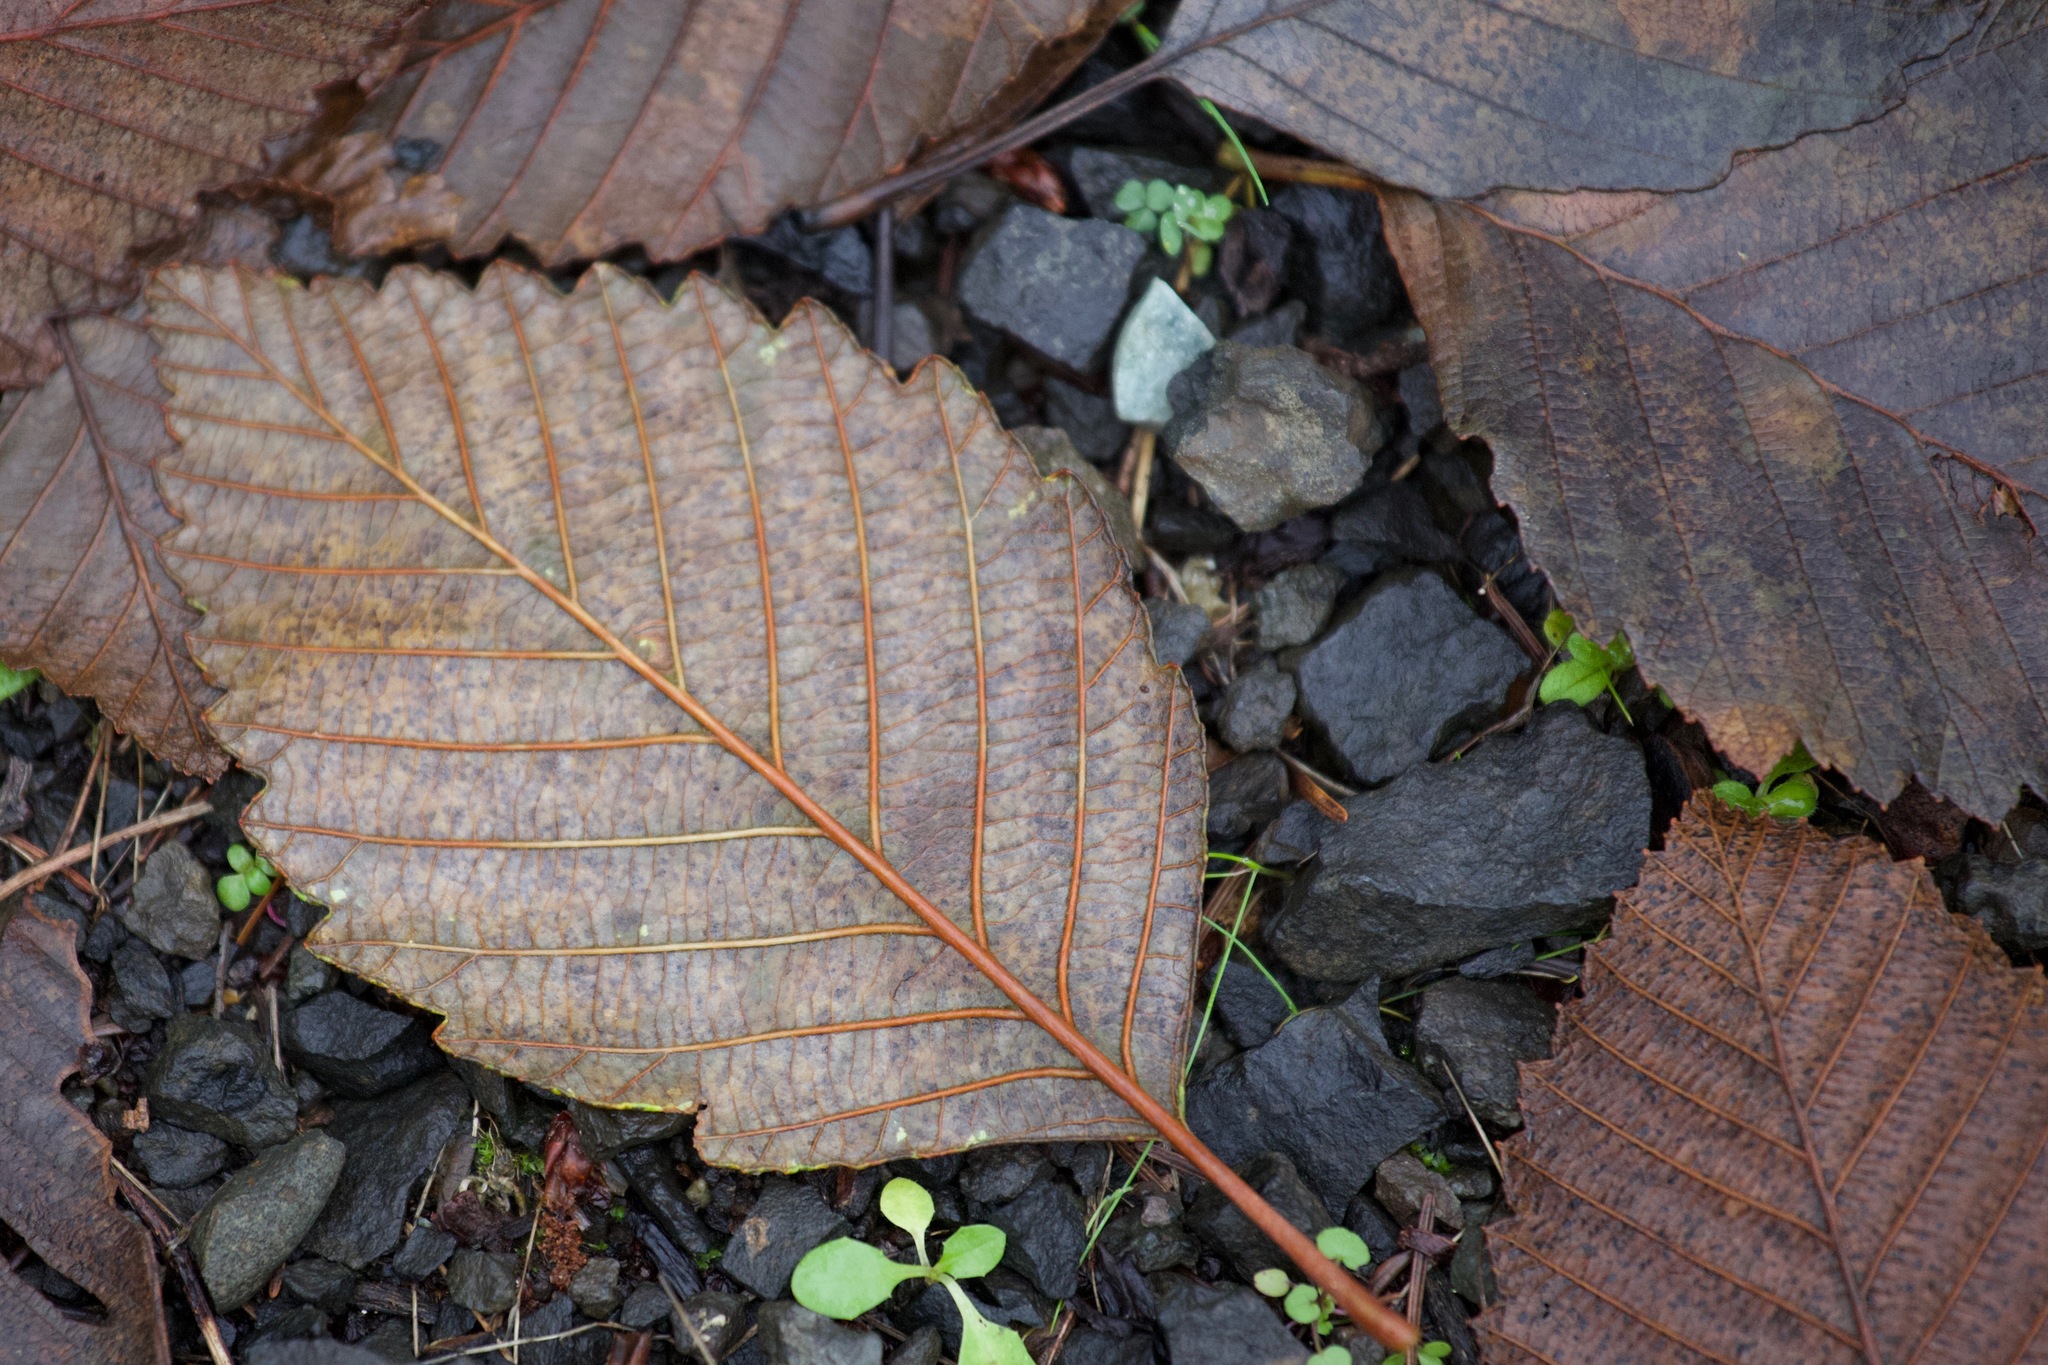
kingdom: Plantae
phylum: Tracheophyta
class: Magnoliopsida
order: Fagales
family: Betulaceae
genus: Alnus
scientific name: Alnus rubra
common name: Red alder
